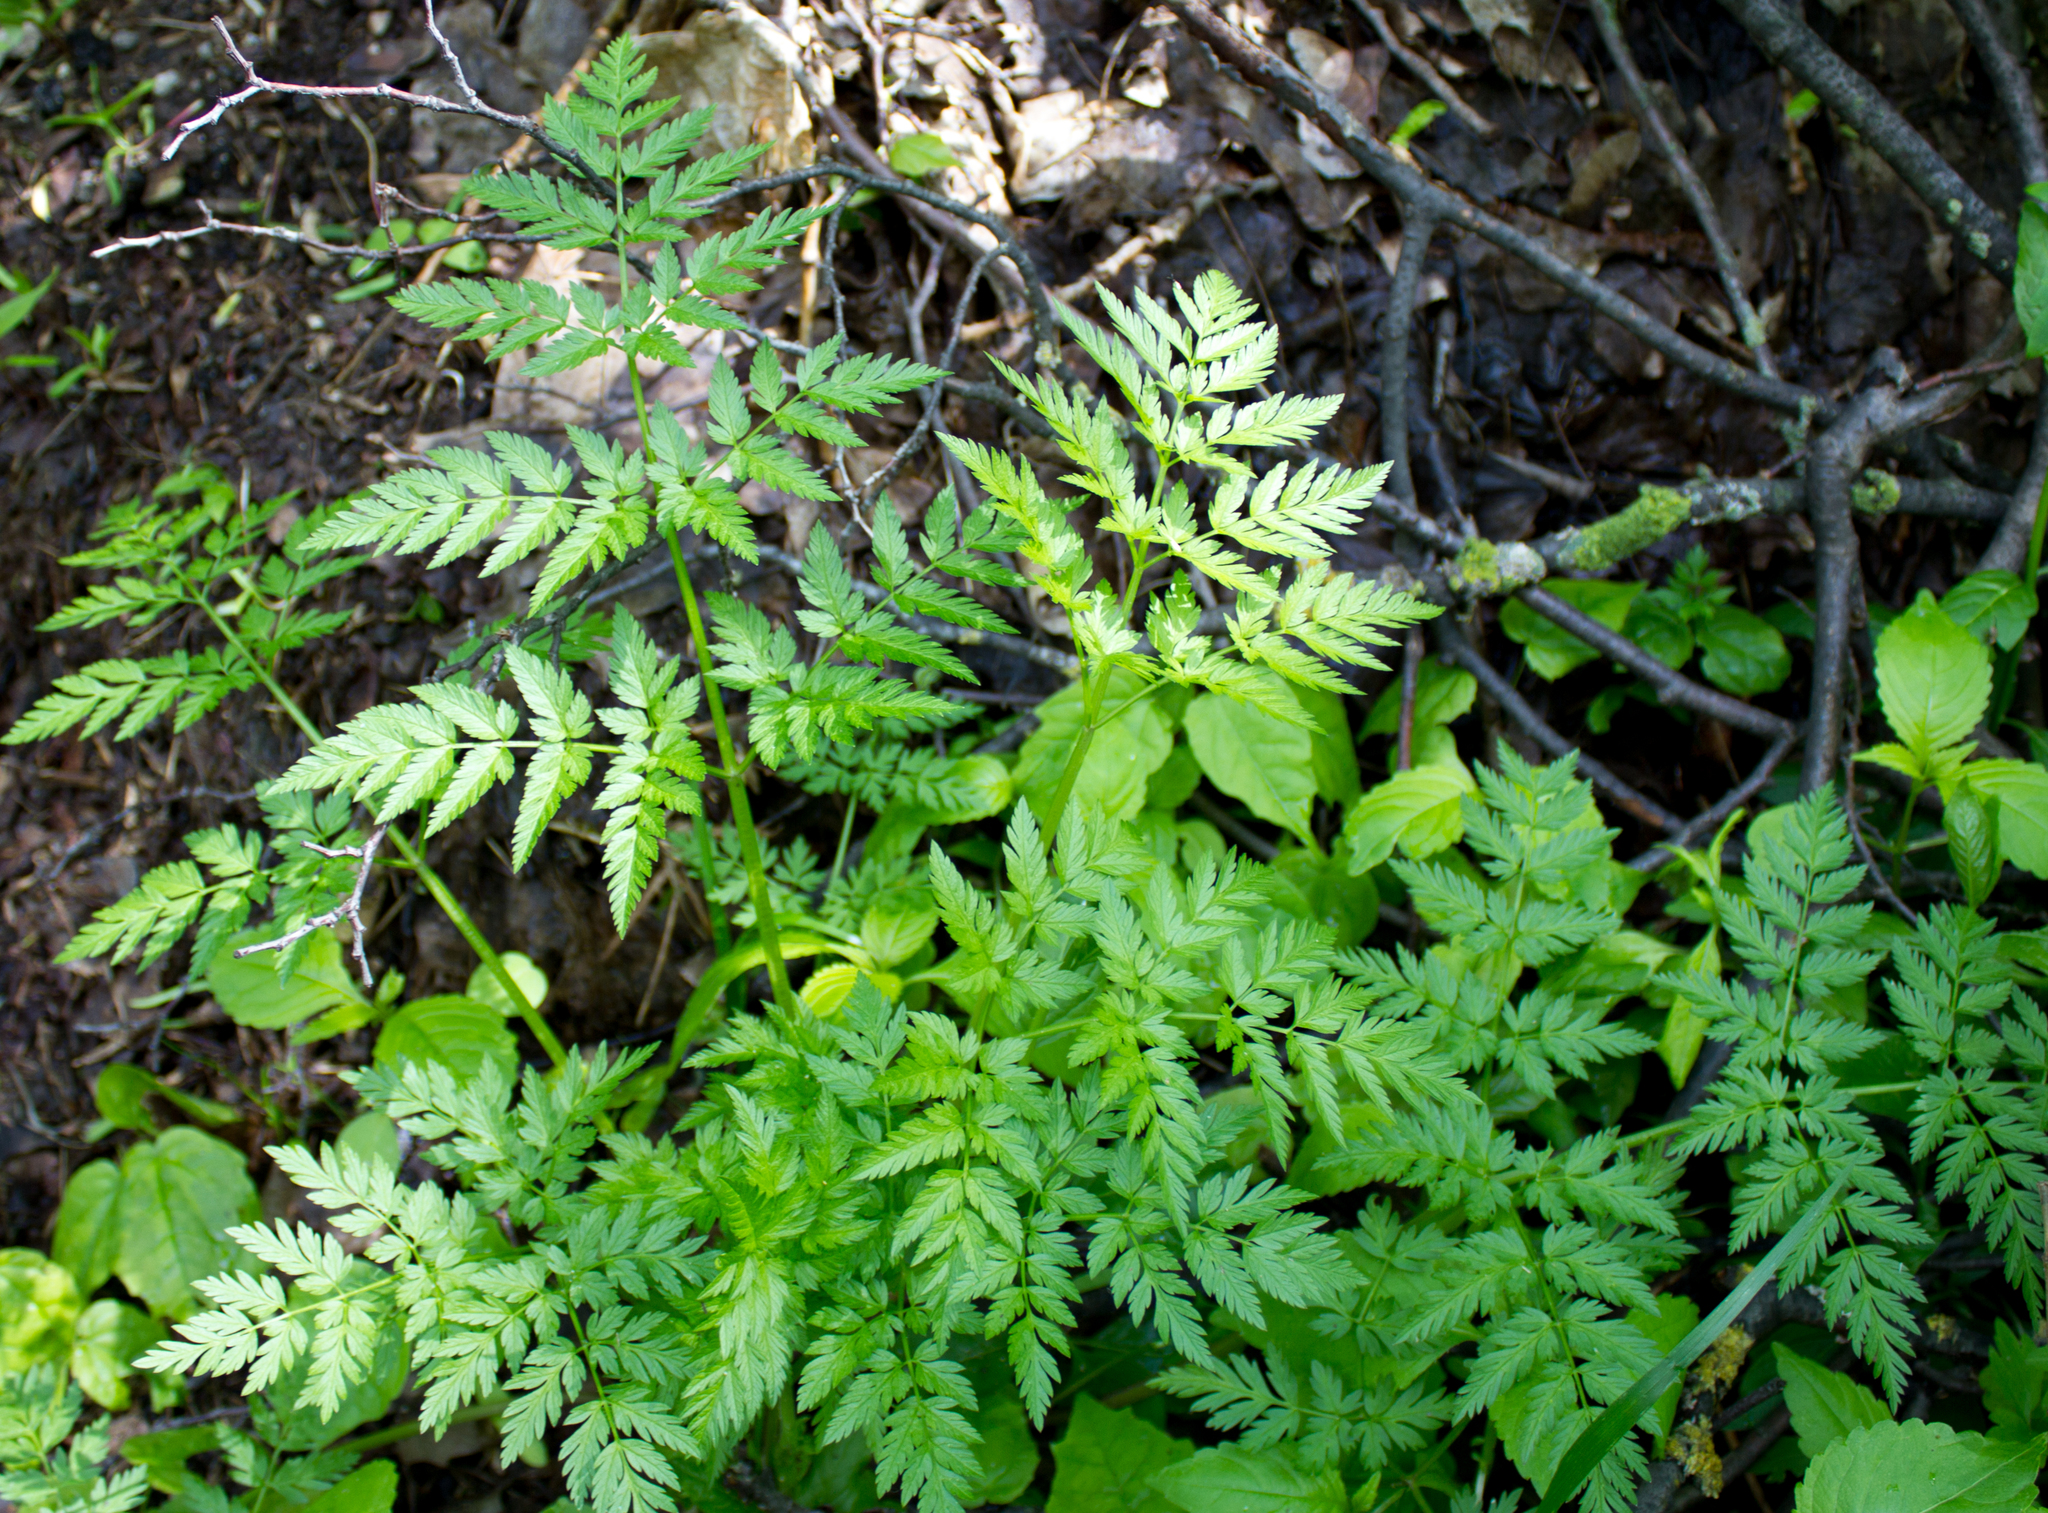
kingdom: Plantae
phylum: Tracheophyta
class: Magnoliopsida
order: Apiales
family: Apiaceae
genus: Anthriscus
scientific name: Anthriscus sylvestris
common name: Cow parsley
